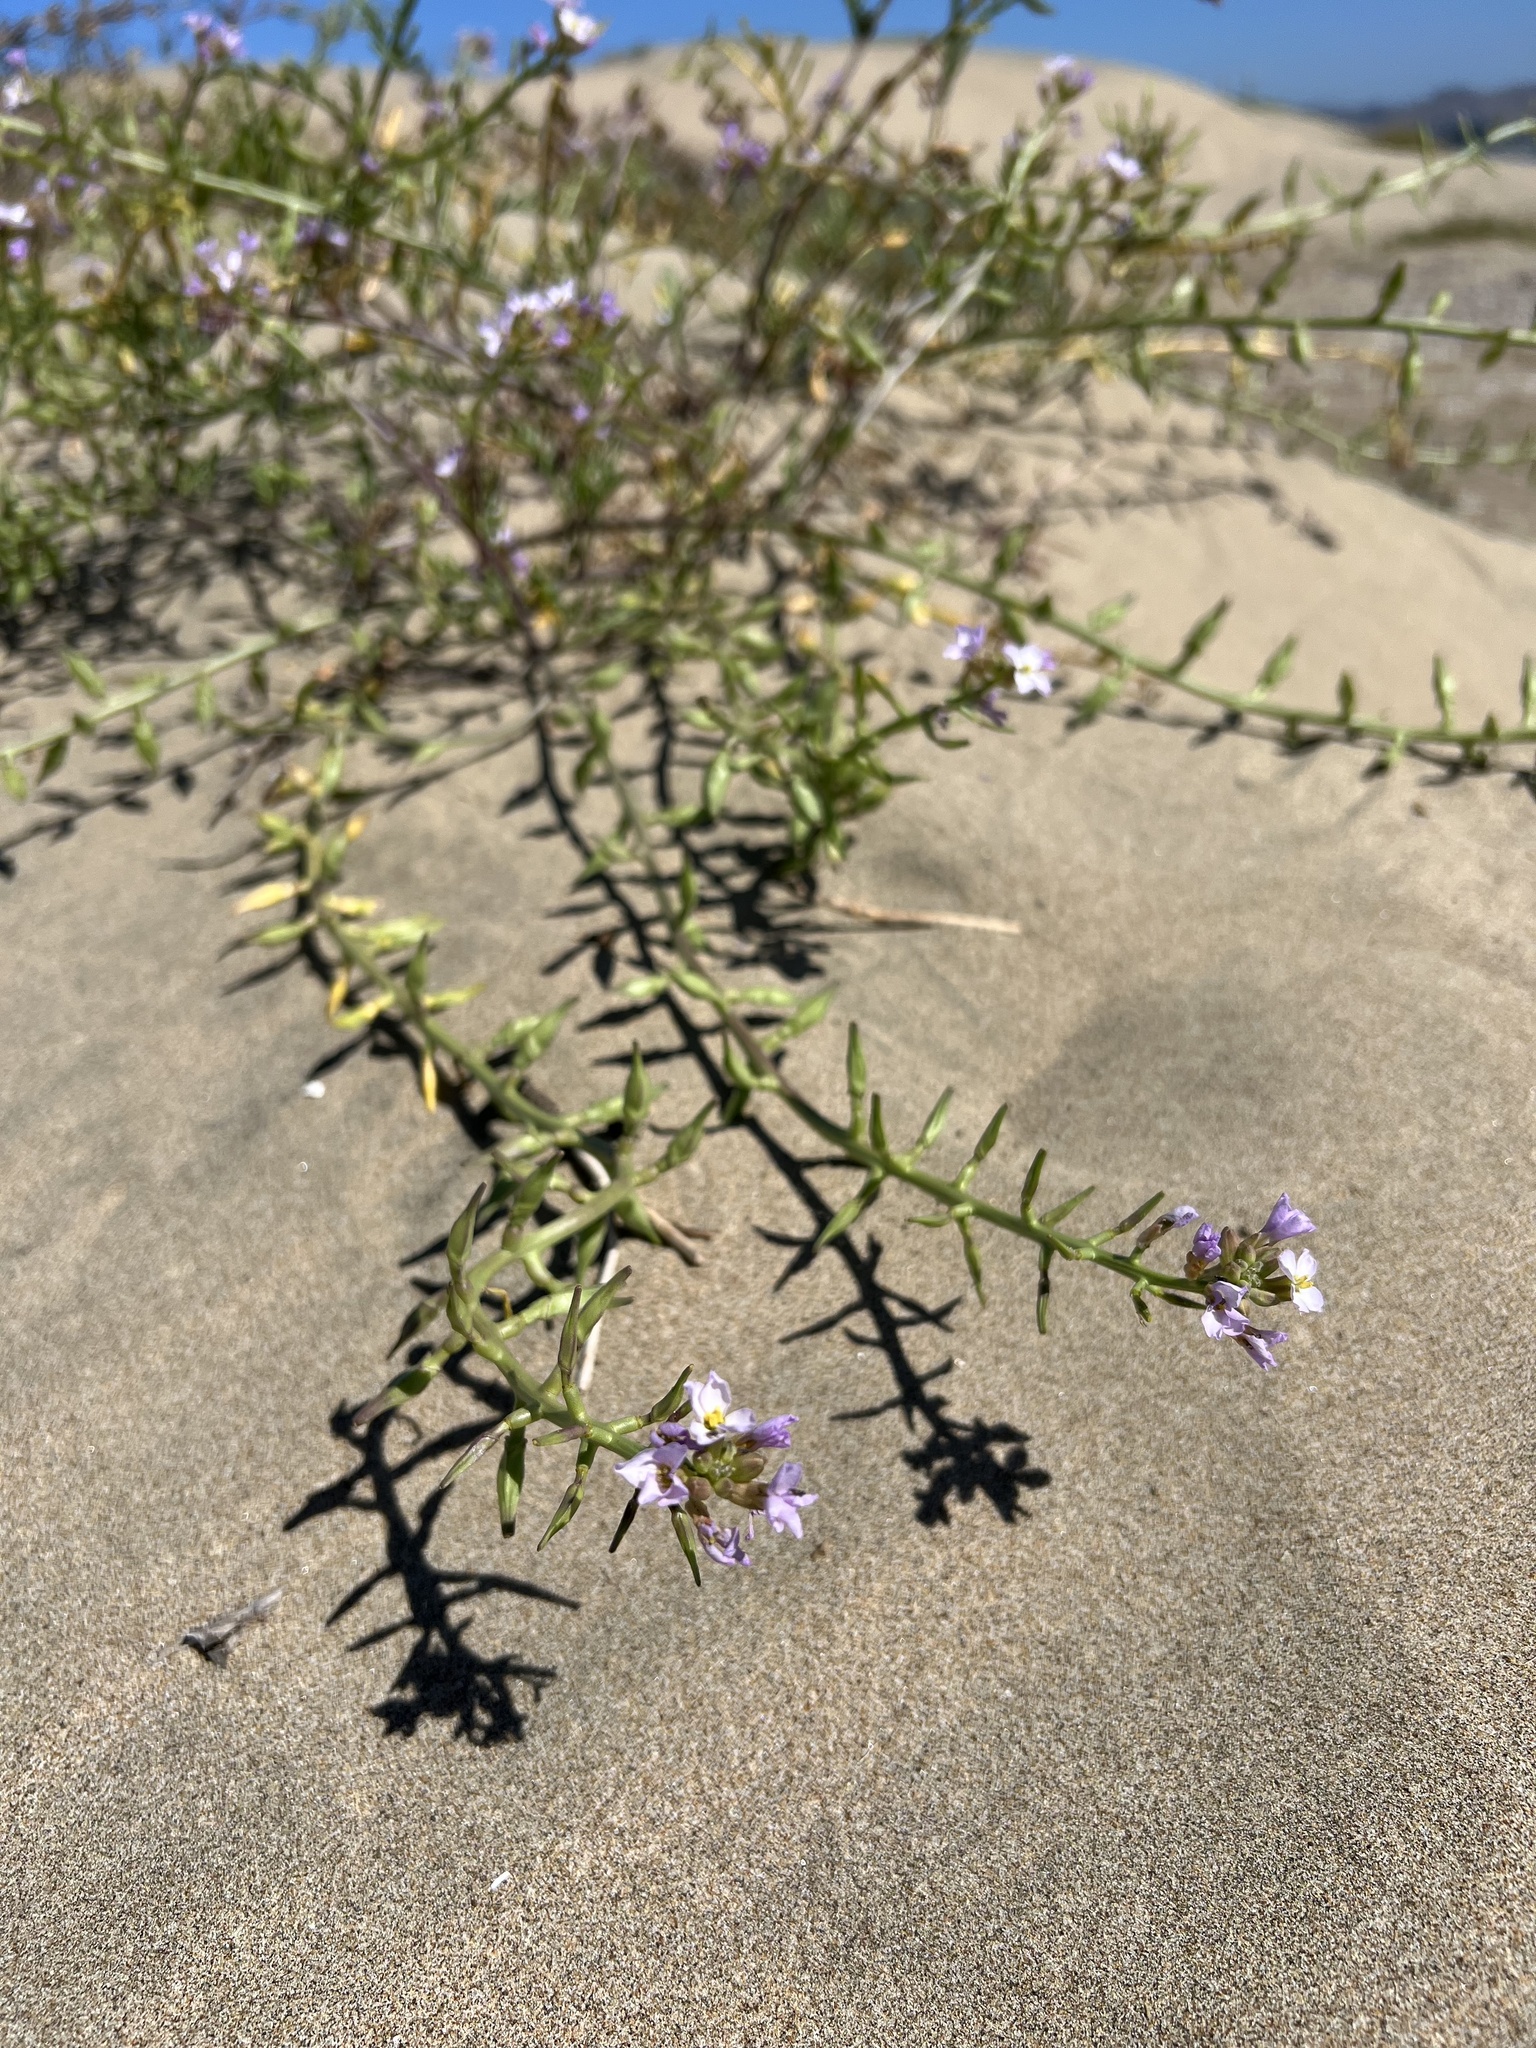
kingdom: Plantae
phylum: Tracheophyta
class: Magnoliopsida
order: Brassicales
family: Brassicaceae
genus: Cakile
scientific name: Cakile maritima
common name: Sea rocket
